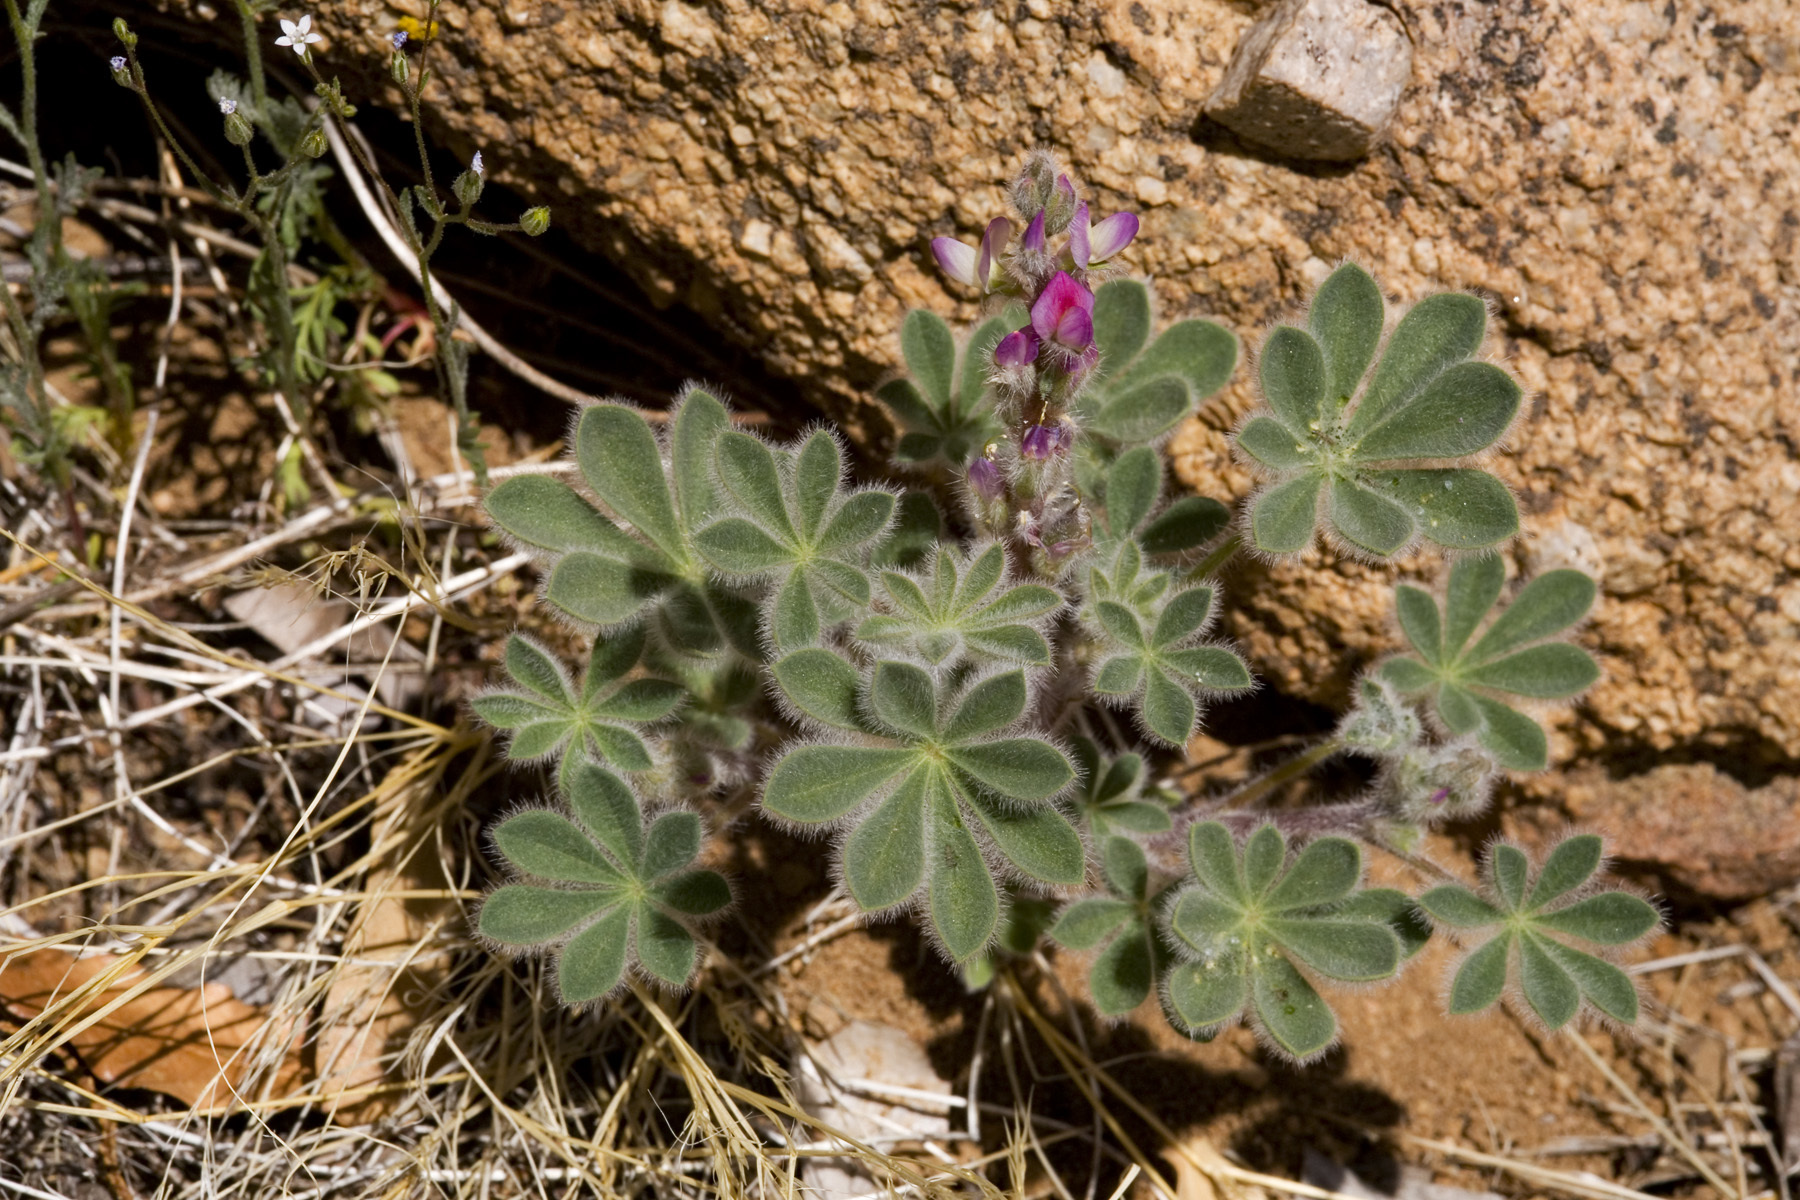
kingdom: Plantae
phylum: Tracheophyta
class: Magnoliopsida
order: Fabales
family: Fabaceae
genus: Lupinus
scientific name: Lupinus concinnus
